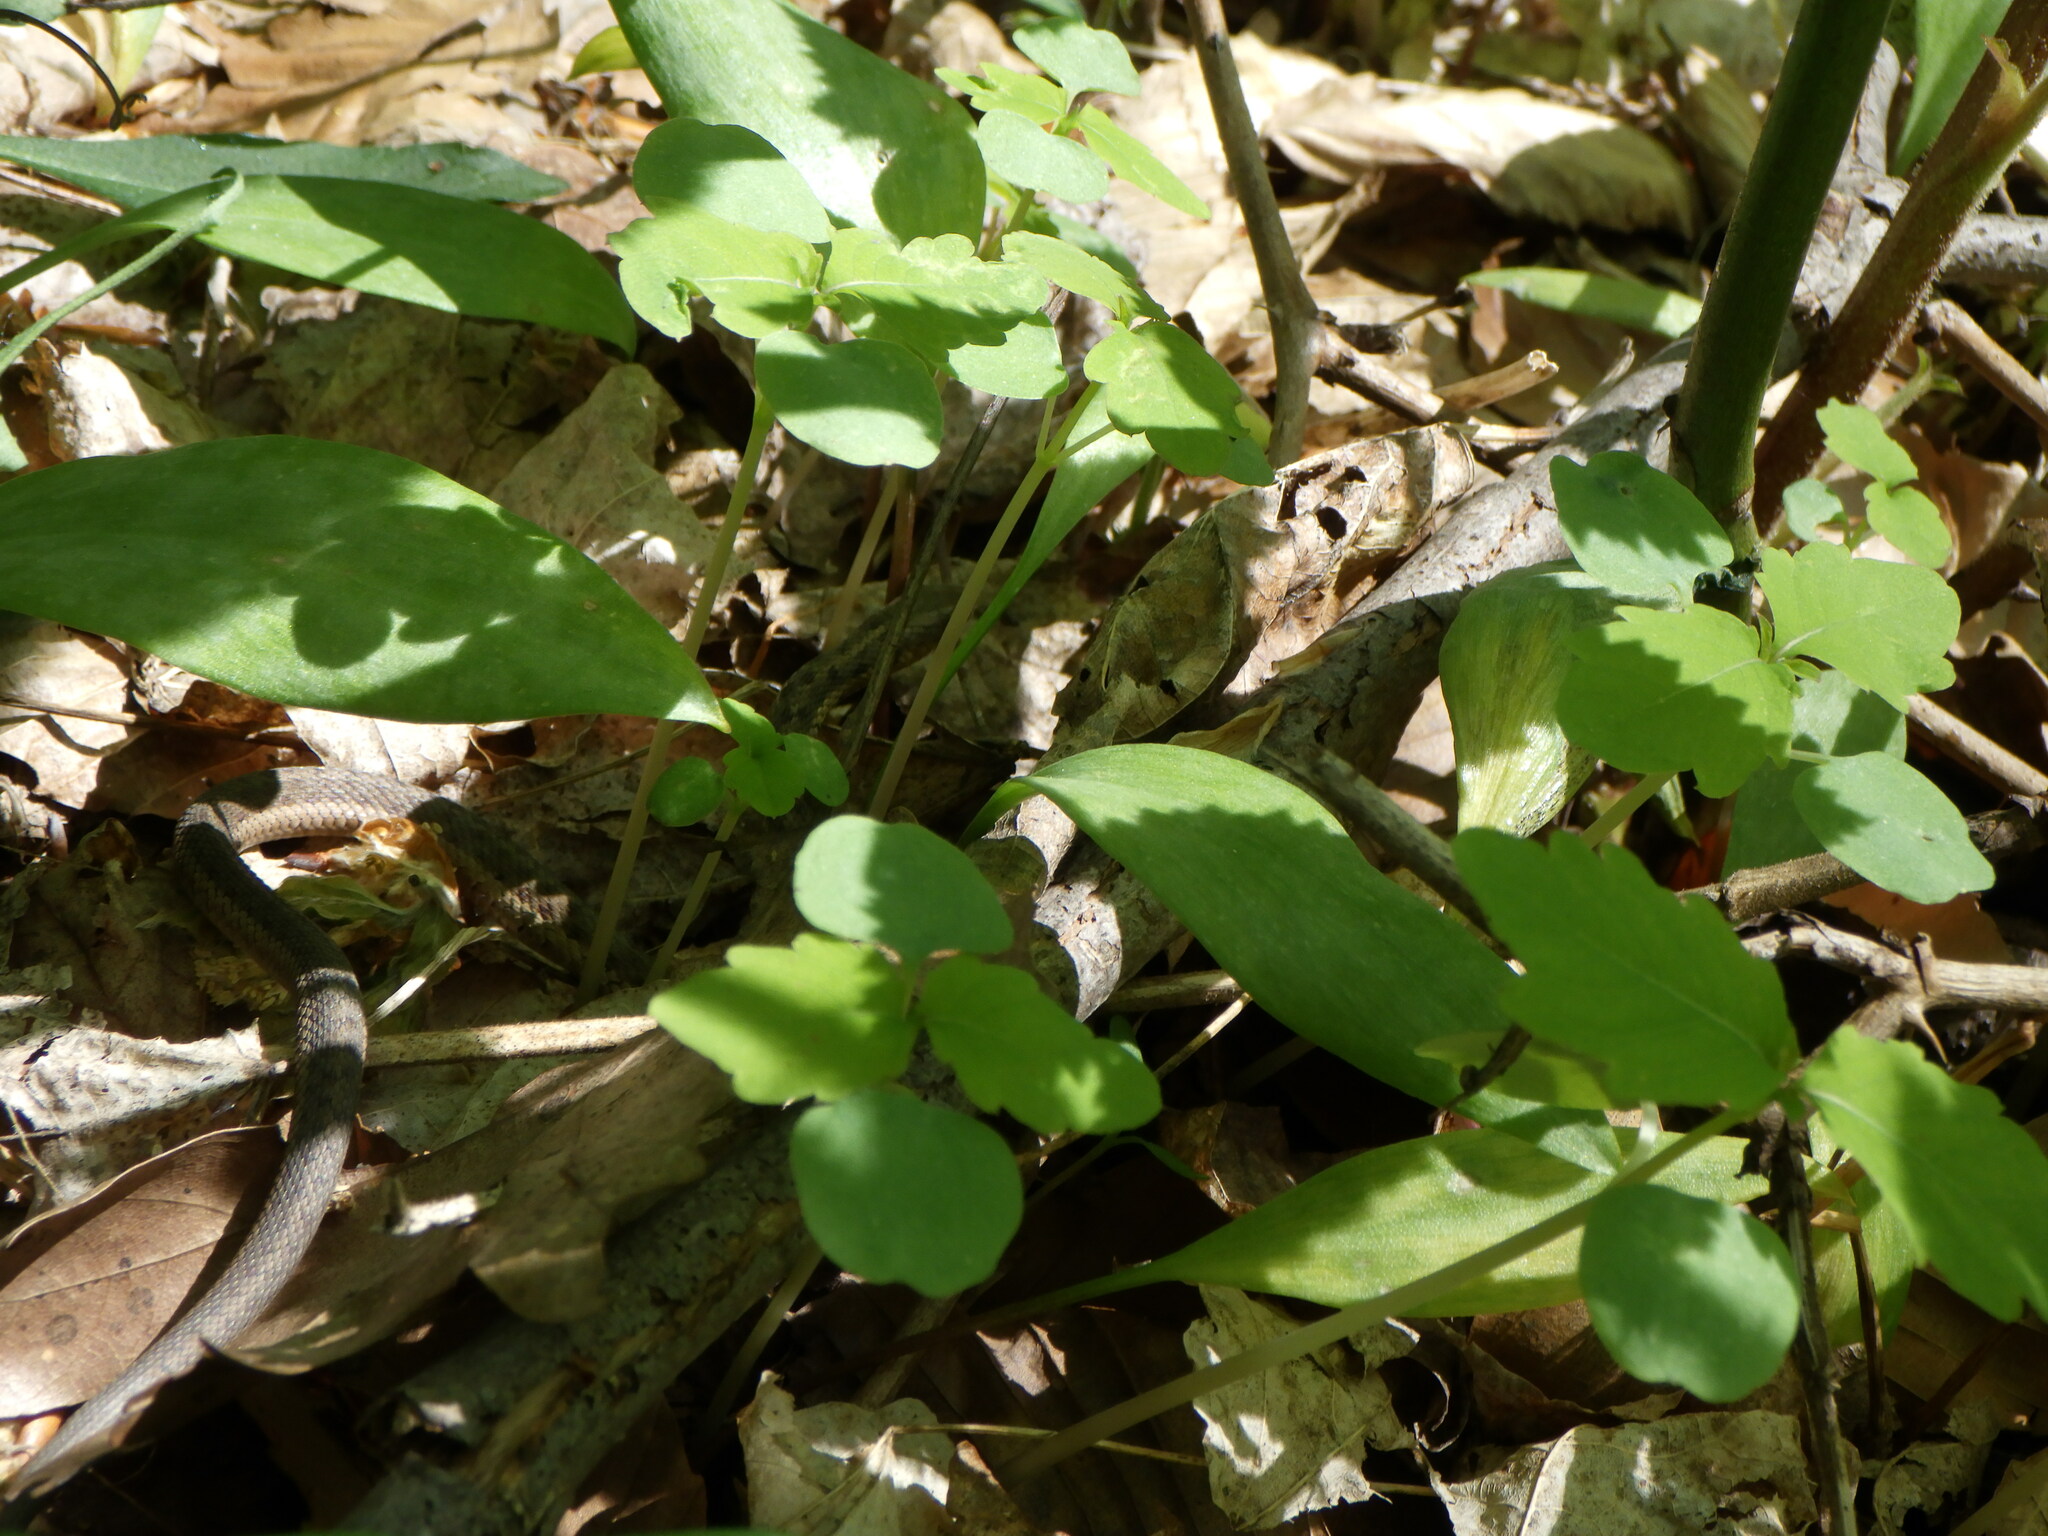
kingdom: Animalia
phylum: Chordata
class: Squamata
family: Colubridae
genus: Thamnophis
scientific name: Thamnophis sirtalis
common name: Common garter snake
